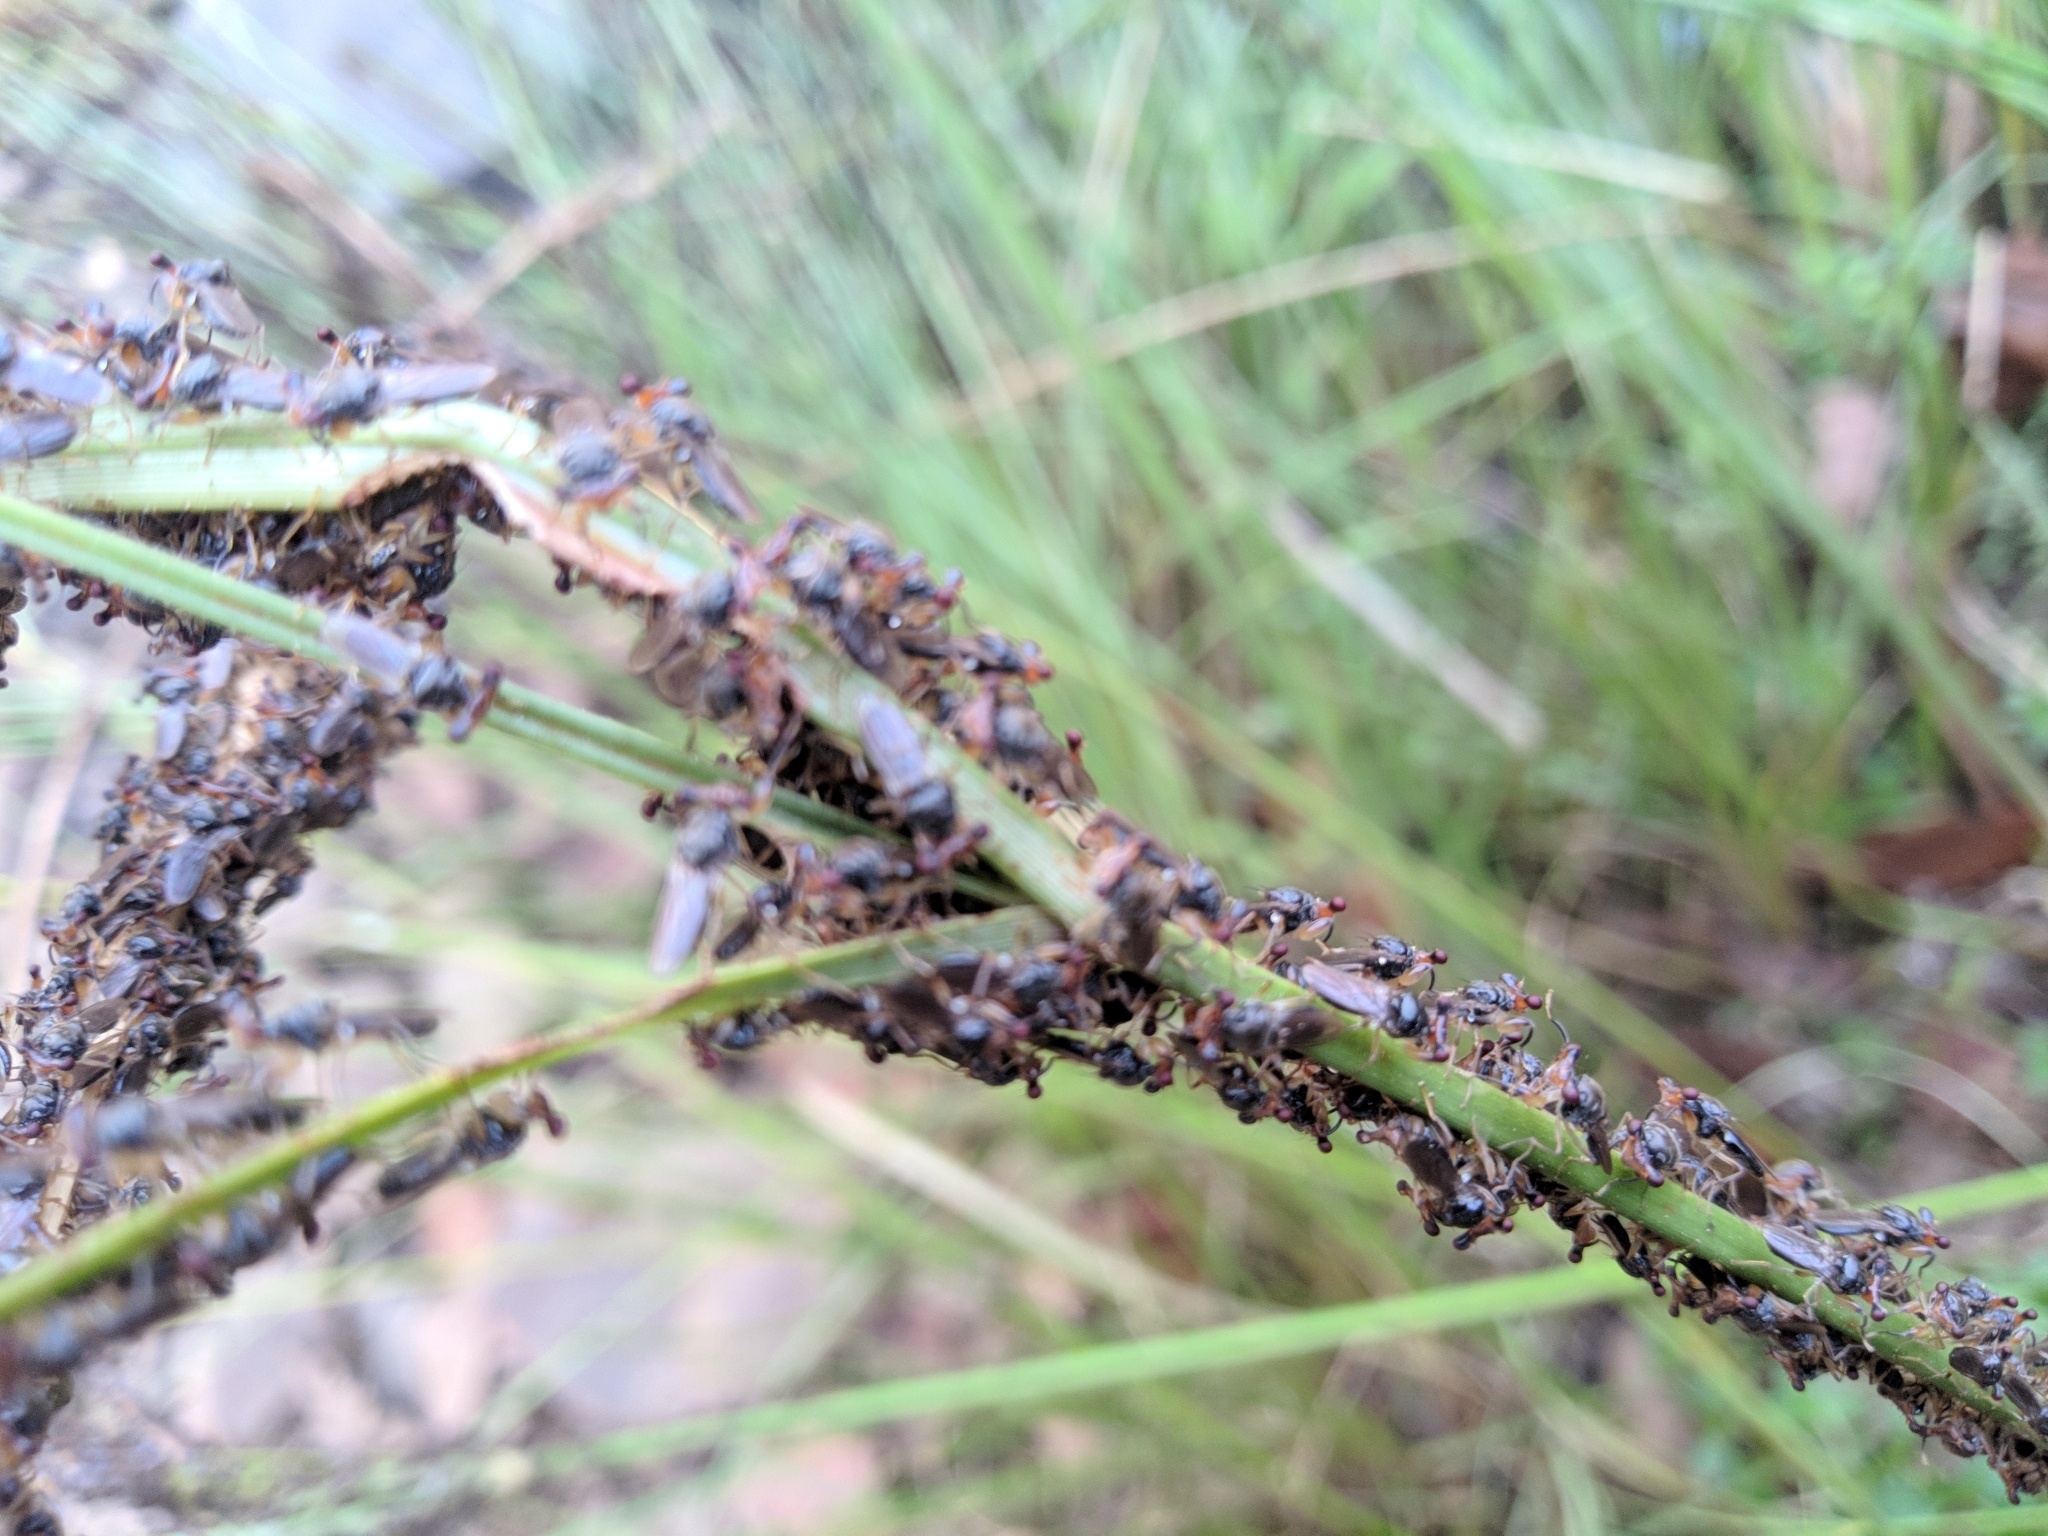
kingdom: Animalia
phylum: Arthropoda
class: Insecta
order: Diptera
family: Diopsidae
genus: Sphyracephala
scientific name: Sphyracephala hearseiana
